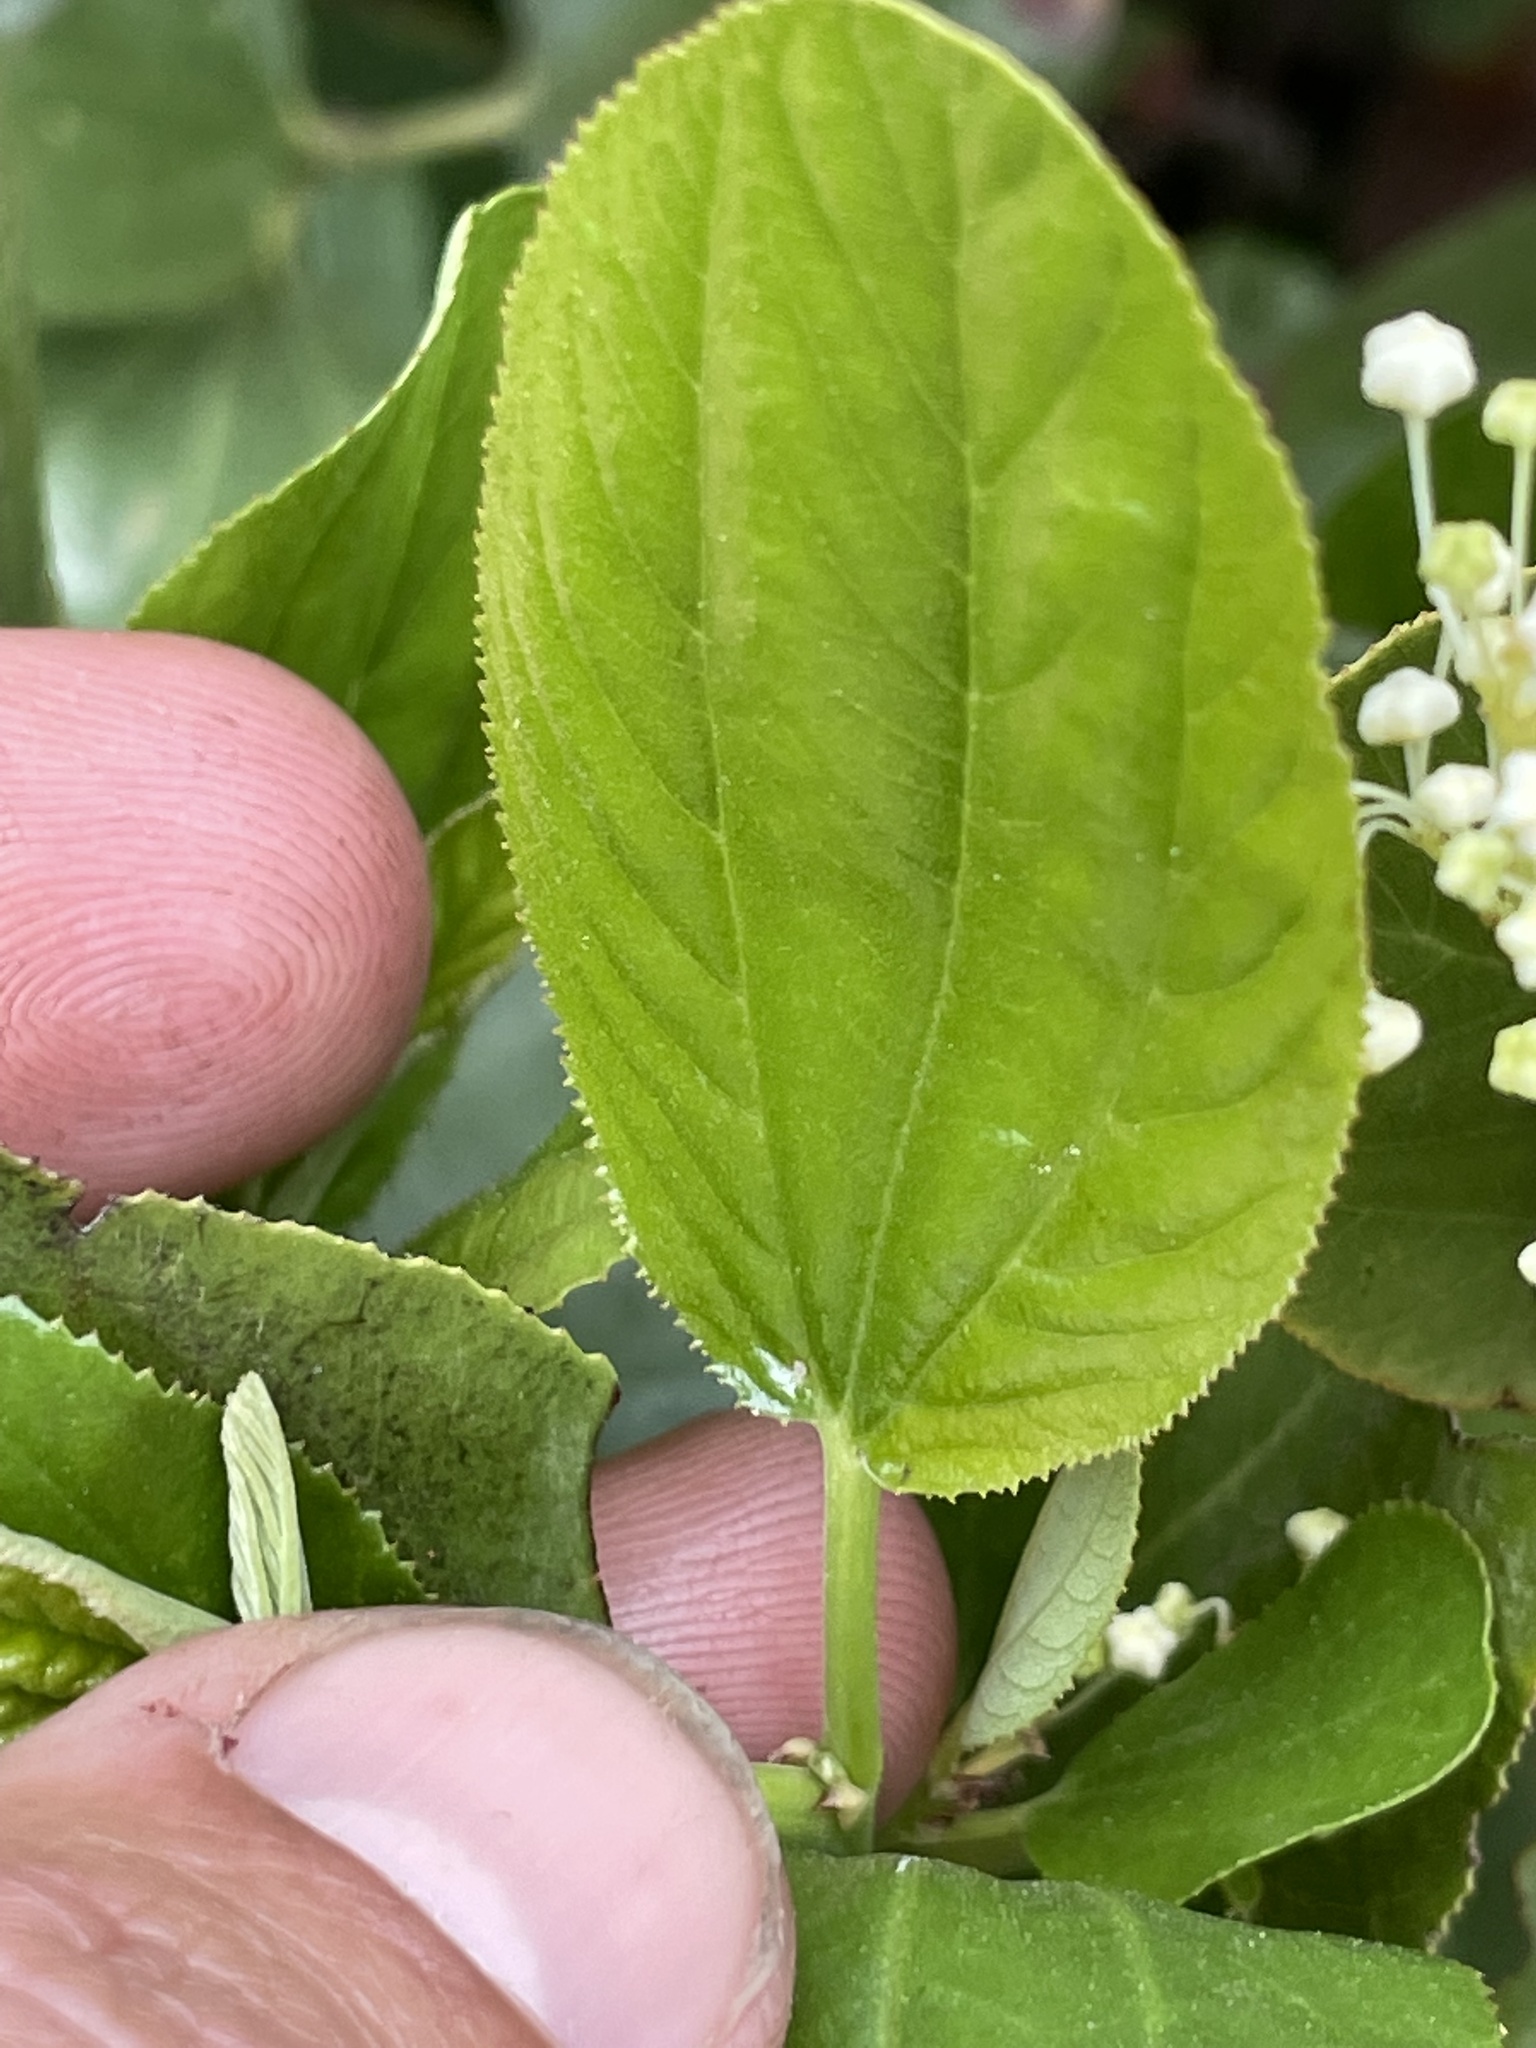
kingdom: Plantae
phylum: Tracheophyta
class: Magnoliopsida
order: Rosales
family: Rhamnaceae
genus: Ceanothus
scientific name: Ceanothus velutinus
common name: Snowbrush
